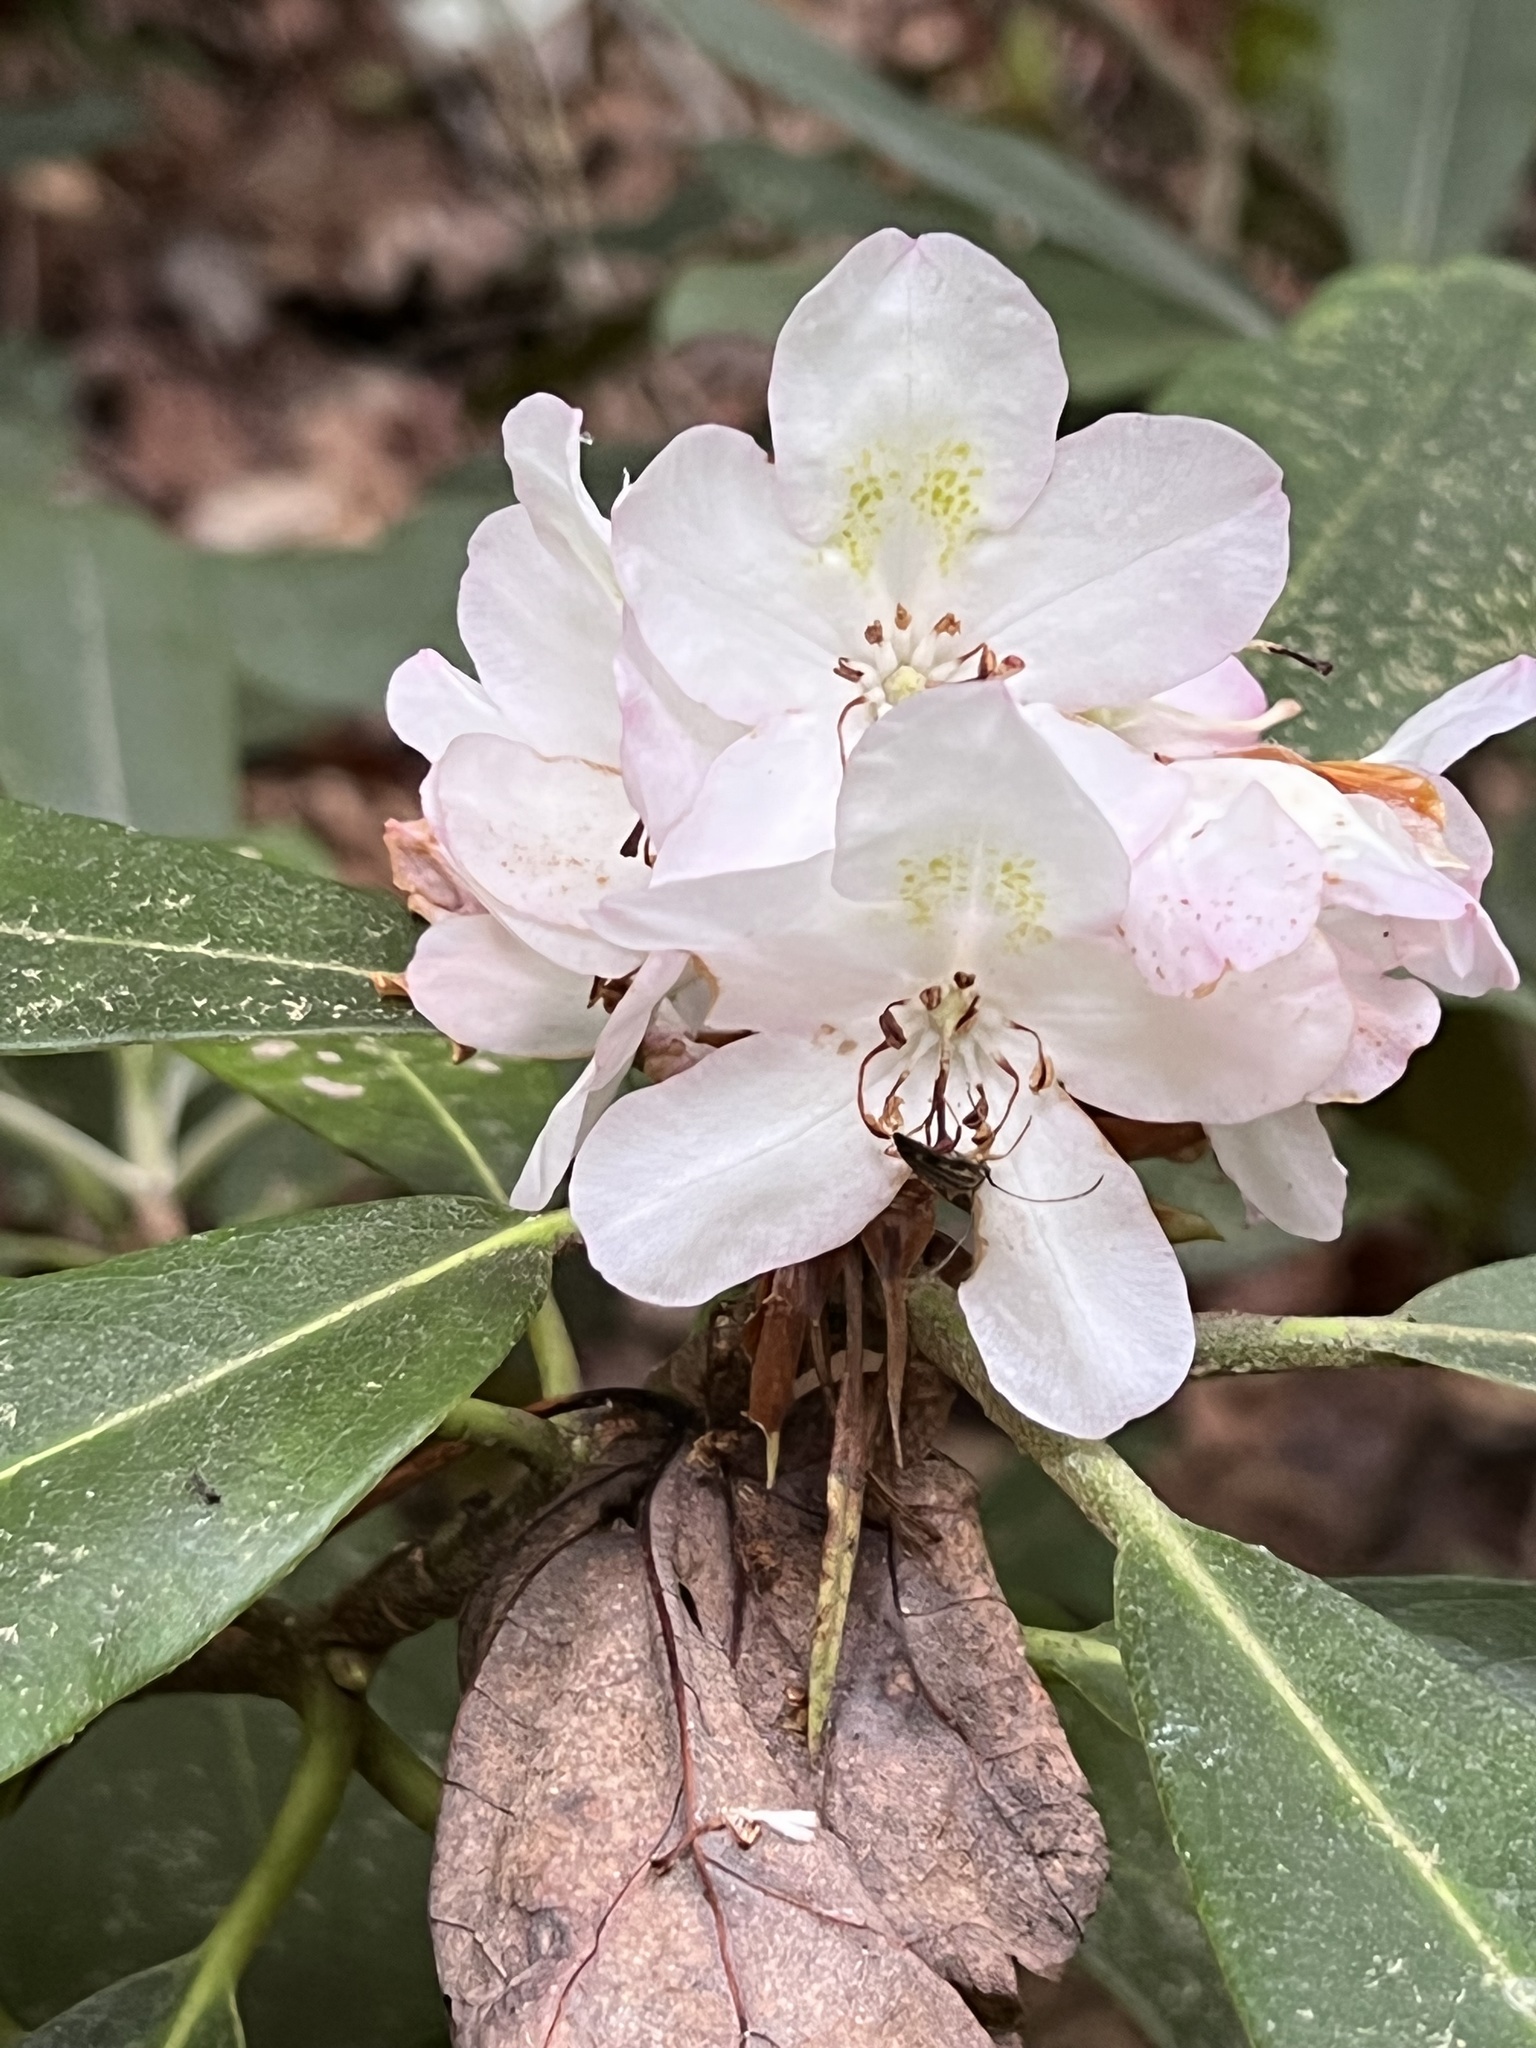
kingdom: Plantae
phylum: Tracheophyta
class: Magnoliopsida
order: Ericales
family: Ericaceae
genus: Rhododendron
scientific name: Rhododendron maximum
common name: Great rhododendron
